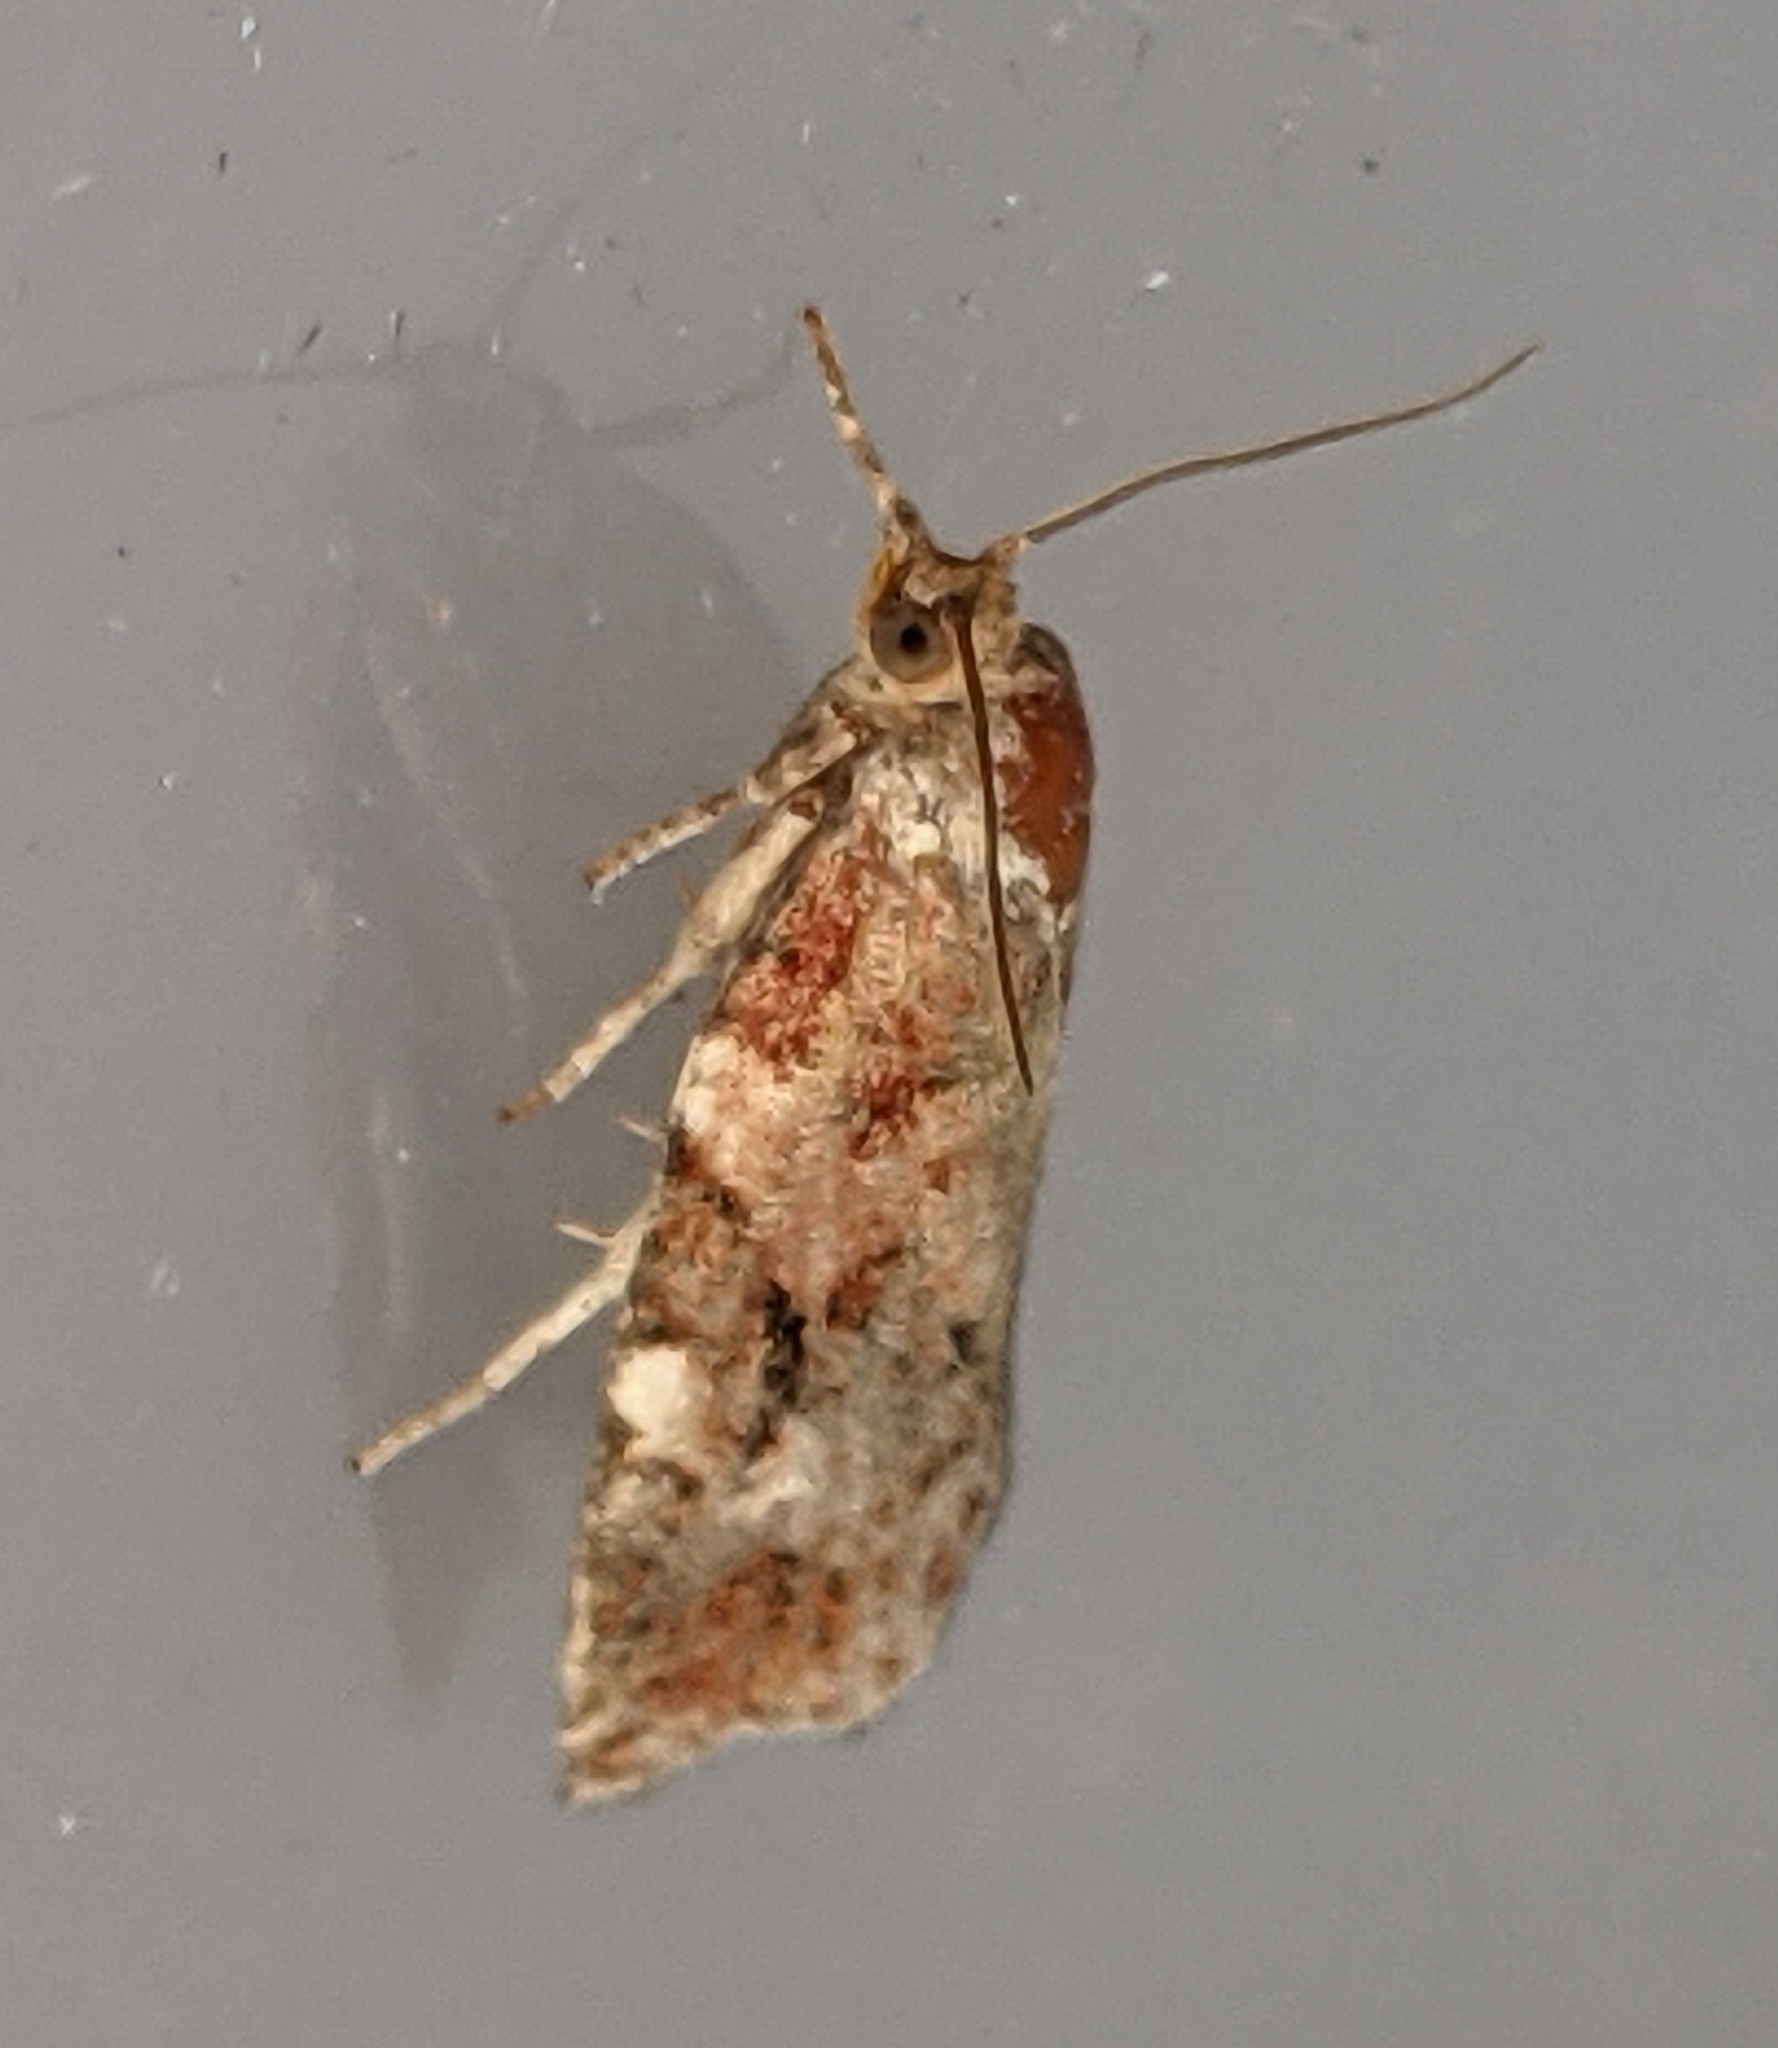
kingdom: Animalia
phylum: Arthropoda
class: Insecta
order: Lepidoptera
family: Tortricidae
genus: Archips
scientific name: Archips argyrospila
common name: Fruit-tree leafroller moth
